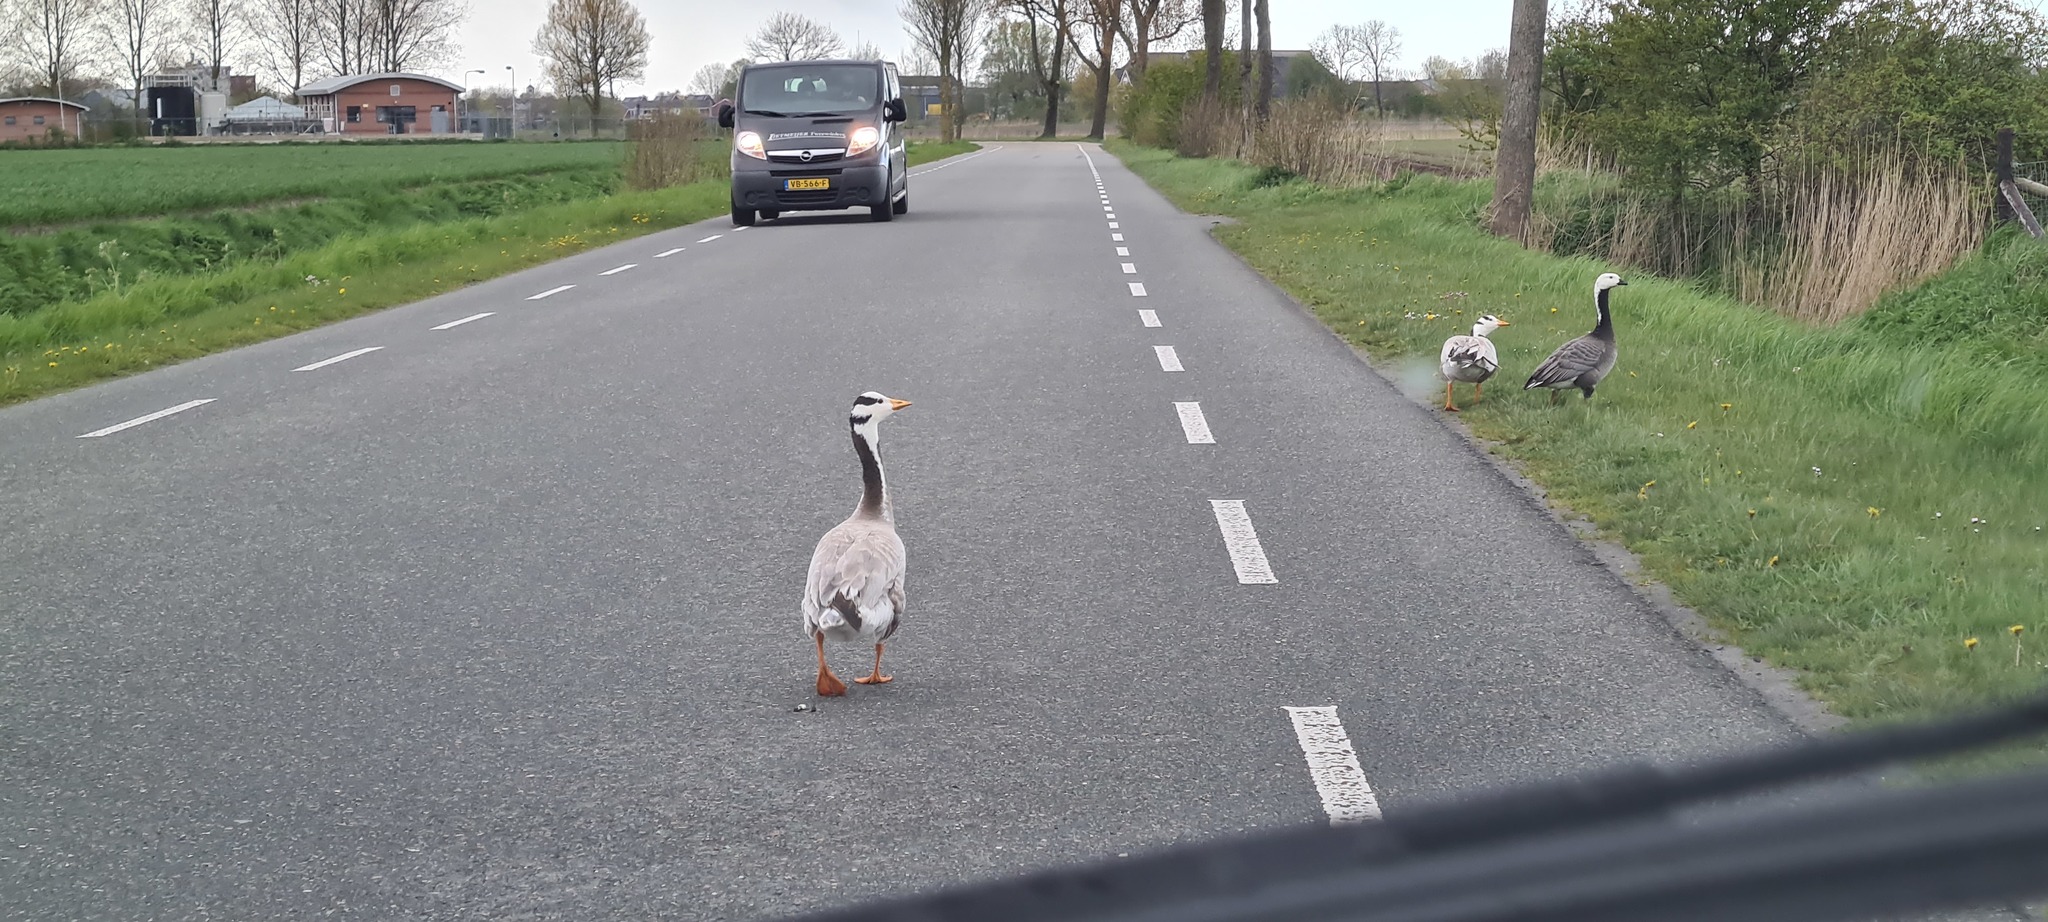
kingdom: Animalia
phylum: Chordata
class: Aves
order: Anseriformes
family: Anatidae
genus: Anser
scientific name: Anser indicus
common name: Bar-headed goose
